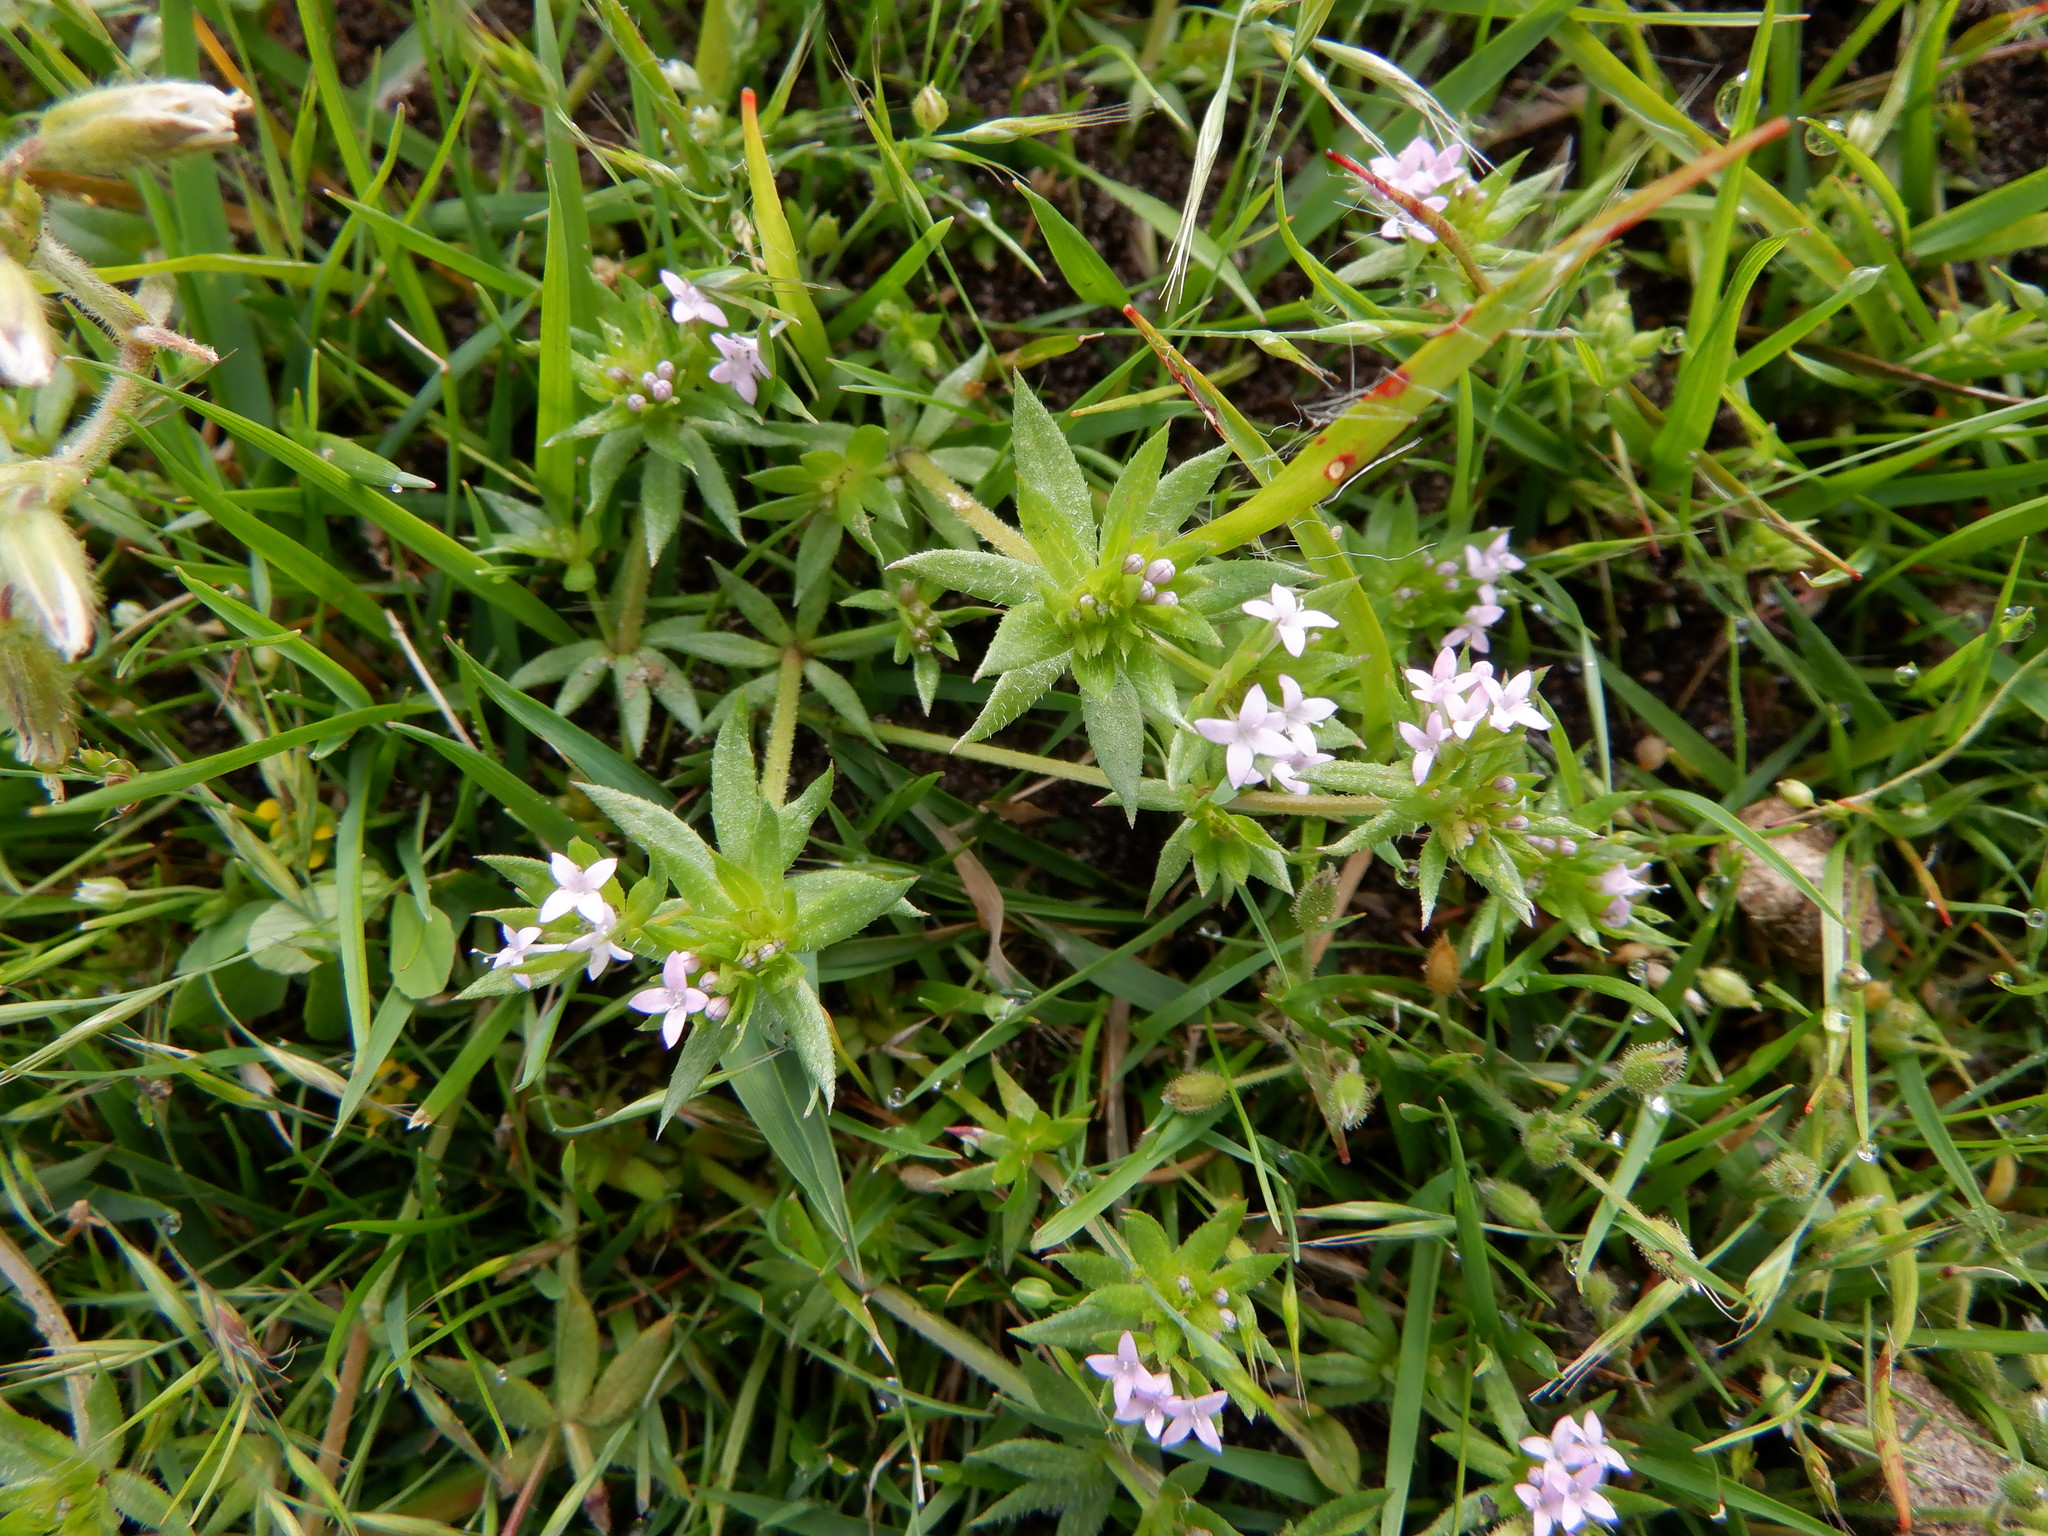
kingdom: Plantae
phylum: Tracheophyta
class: Magnoliopsida
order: Gentianales
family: Rubiaceae
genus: Sherardia
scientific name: Sherardia arvensis
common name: Field madder
